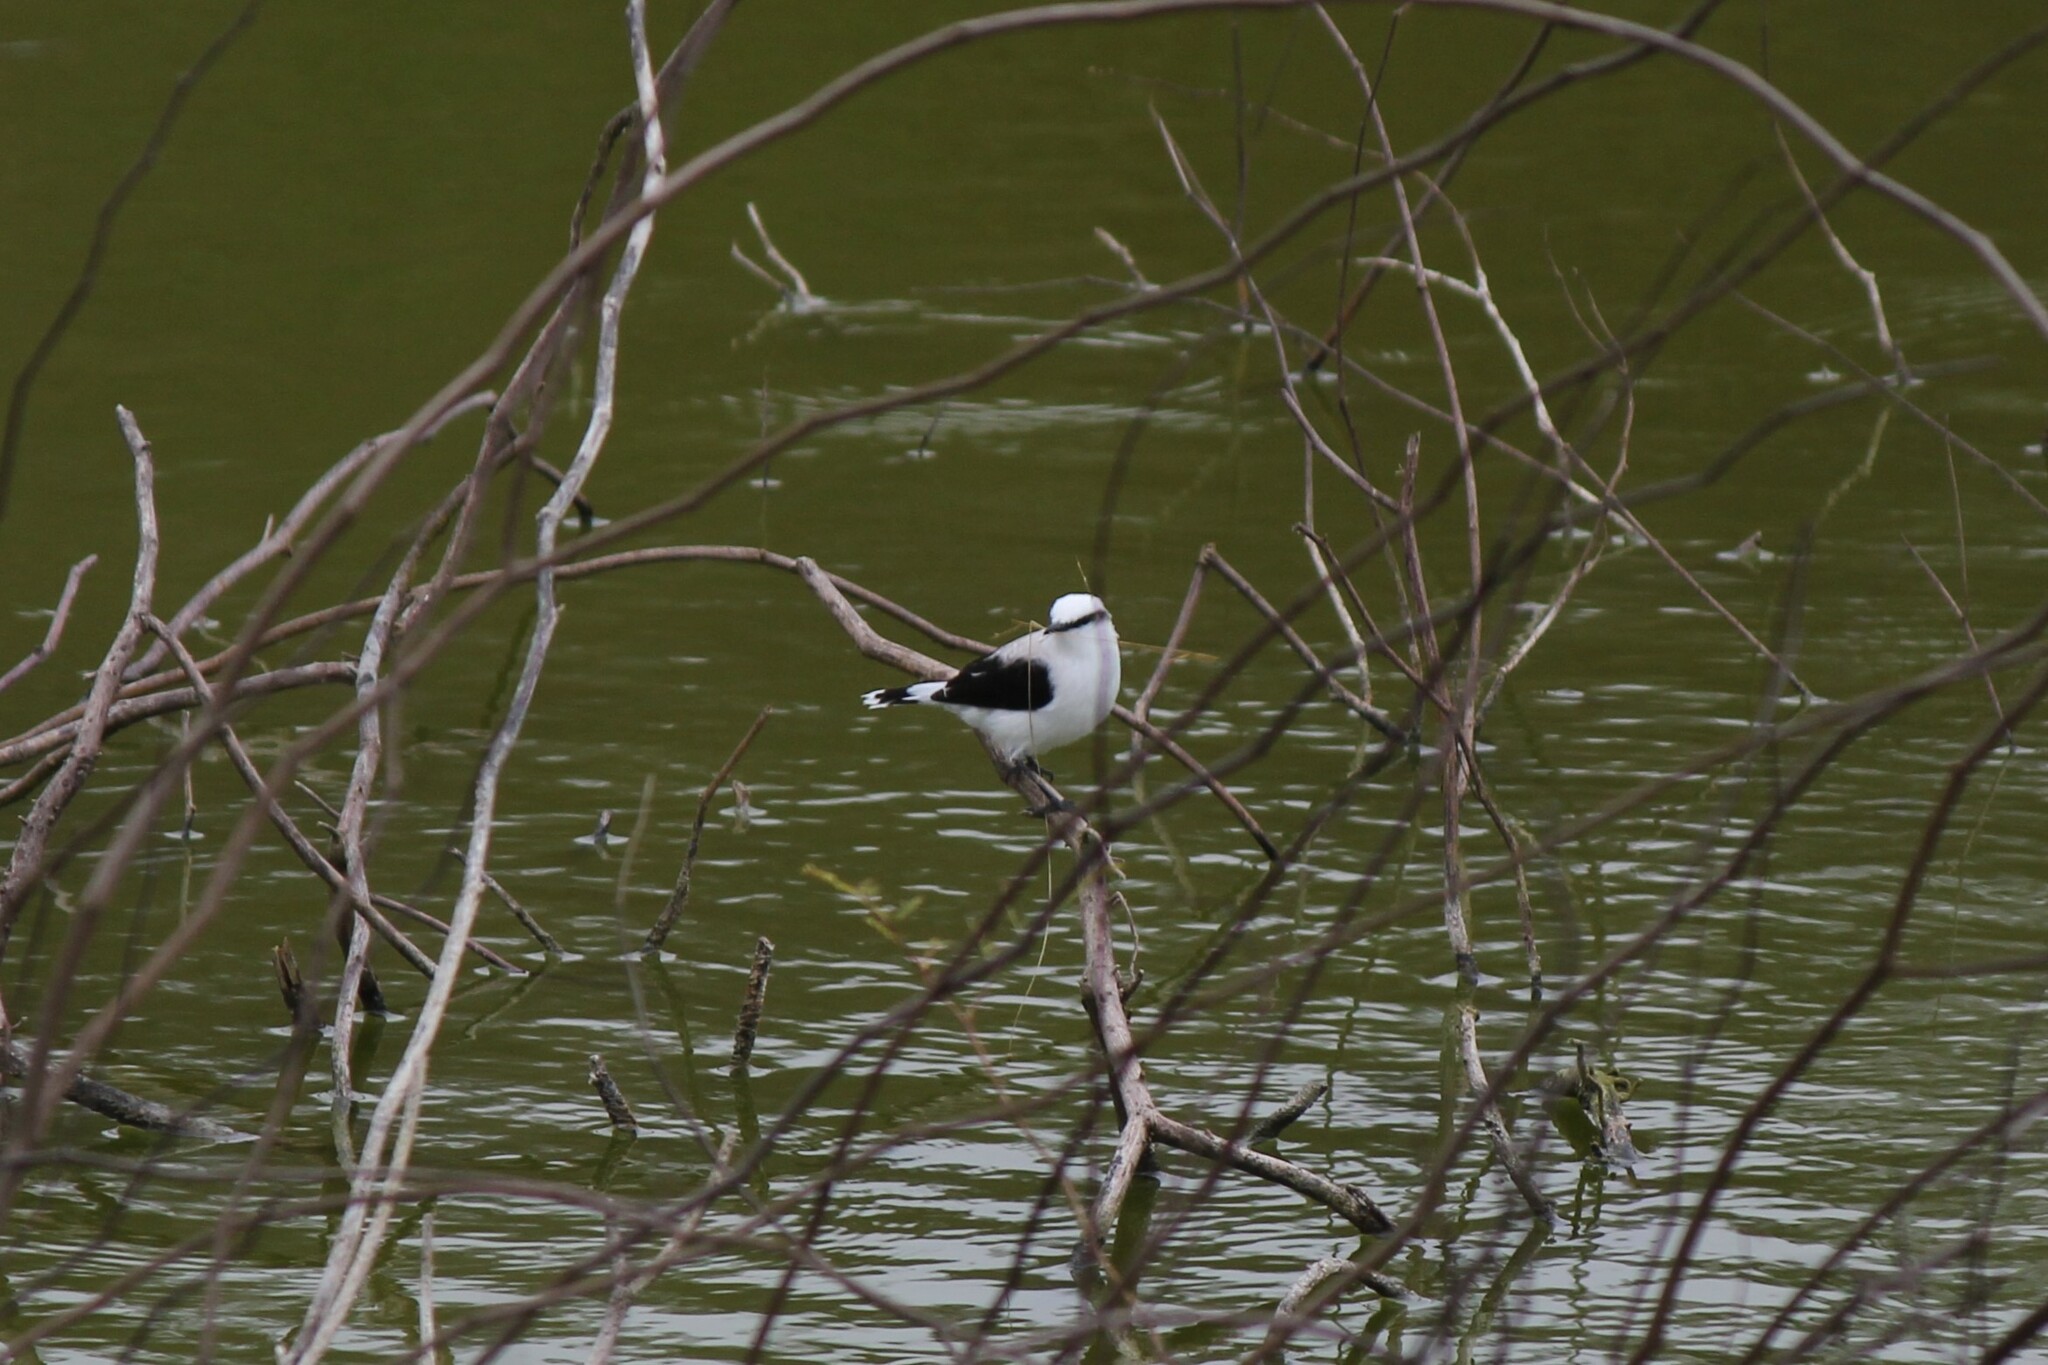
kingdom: Animalia
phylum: Chordata
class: Aves
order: Passeriformes
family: Tyrannidae
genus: Fluvicola
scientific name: Fluvicola nengeta
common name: Masked water tyrant
